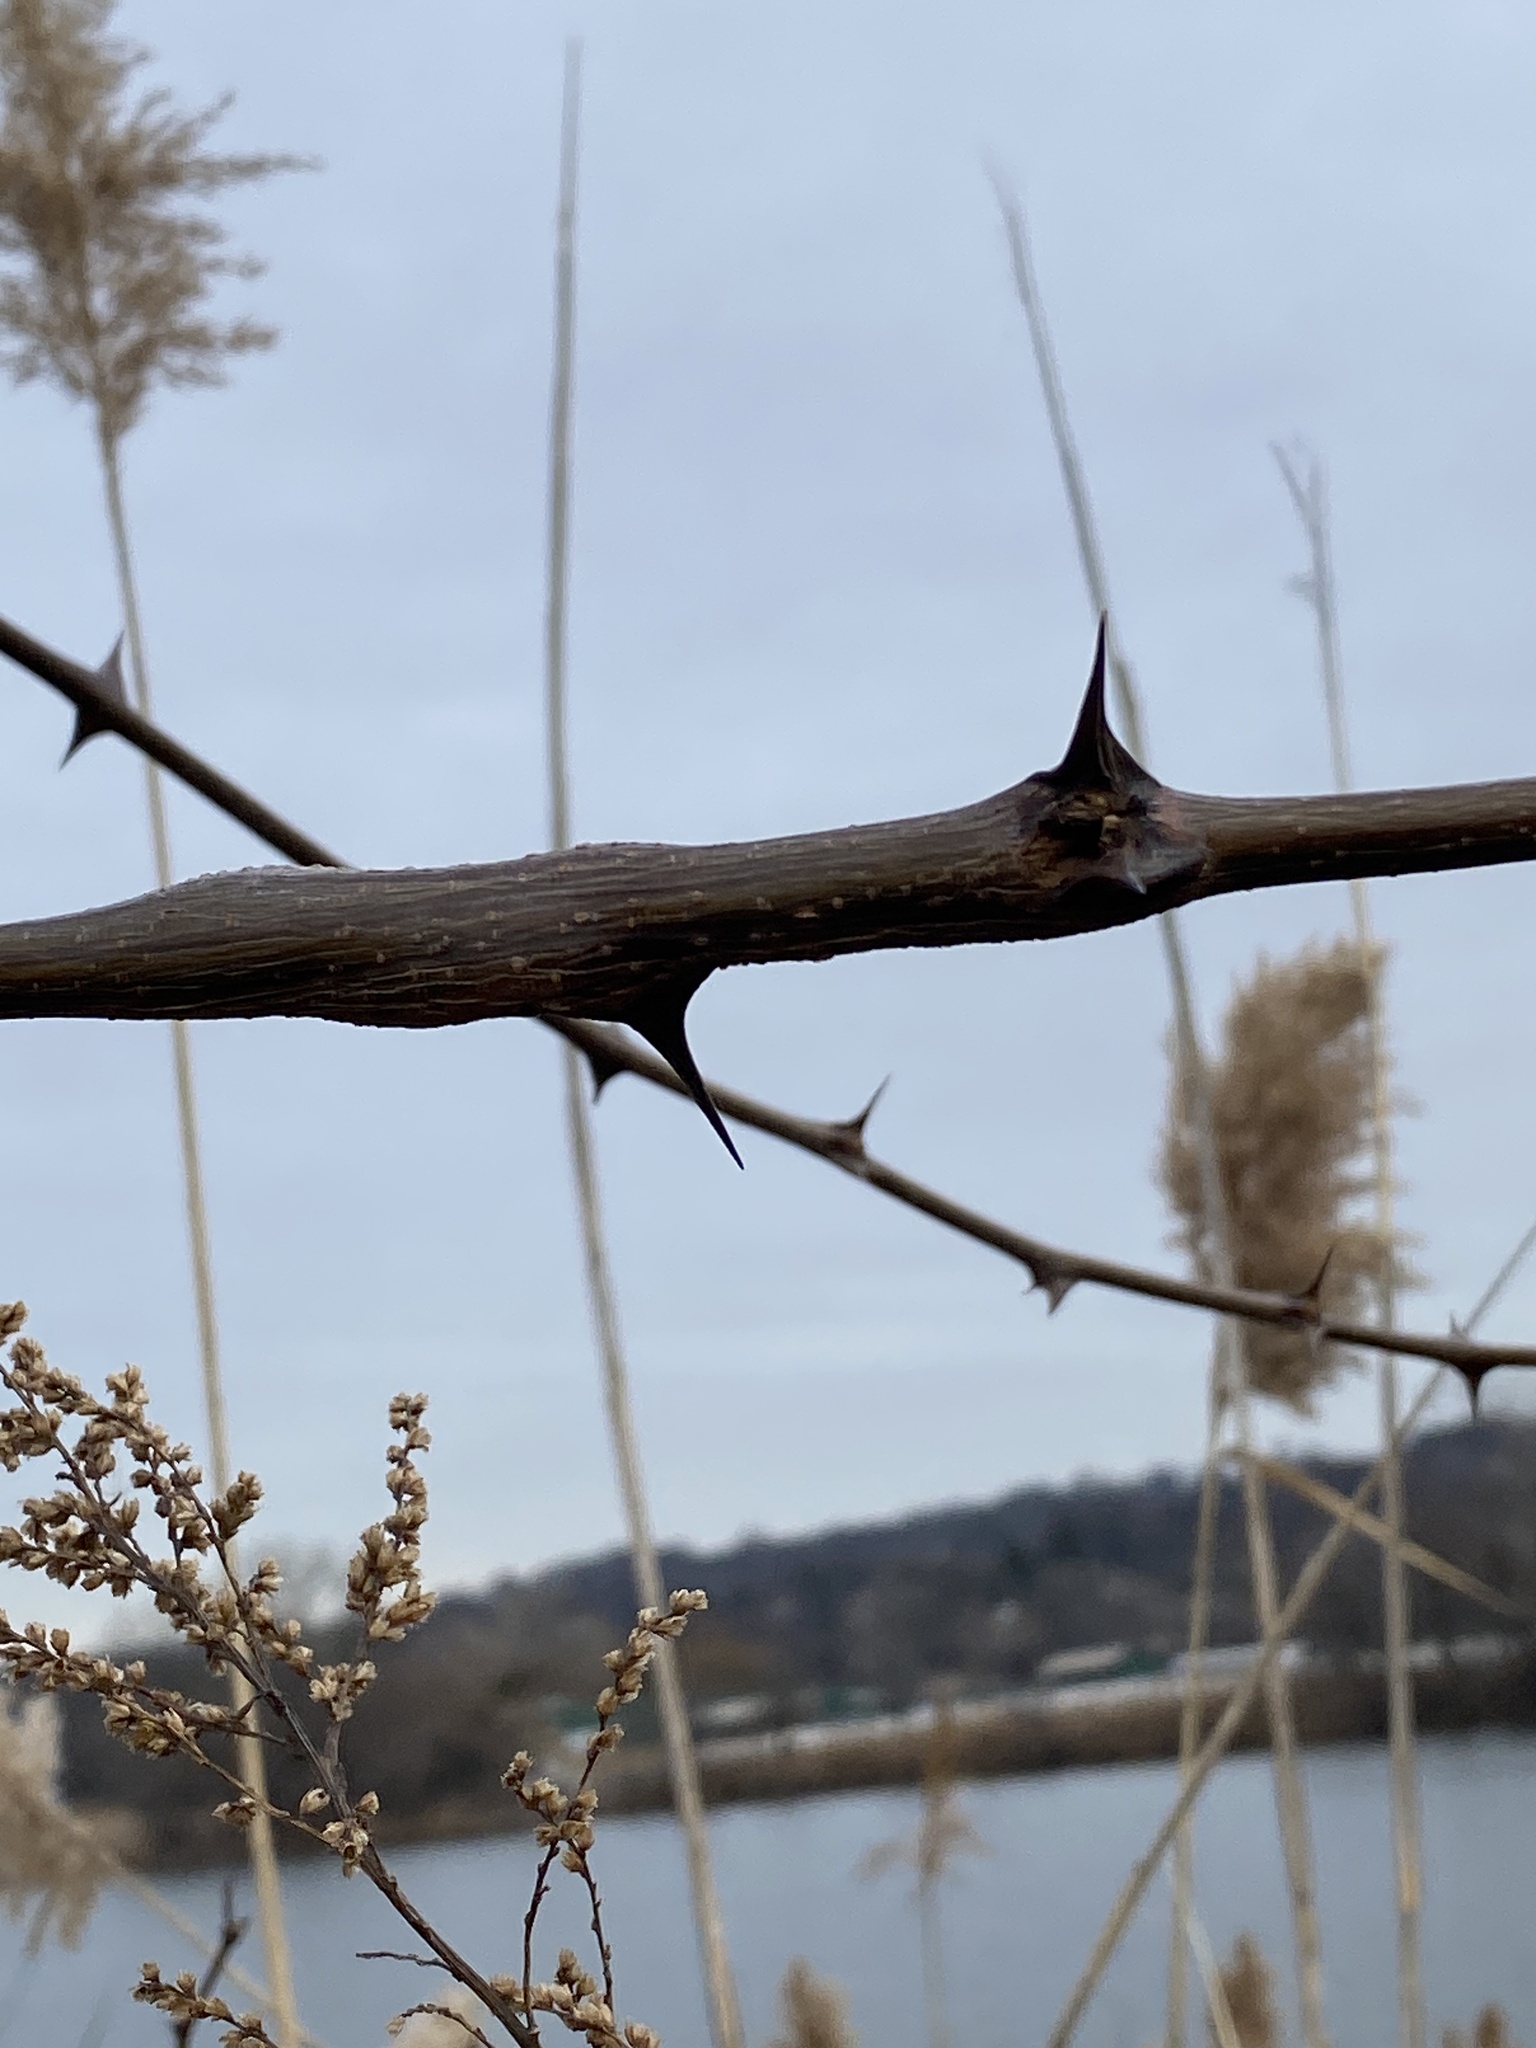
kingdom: Plantae
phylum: Tracheophyta
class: Magnoliopsida
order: Fabales
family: Fabaceae
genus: Robinia
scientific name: Robinia pseudoacacia
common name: Black locust
